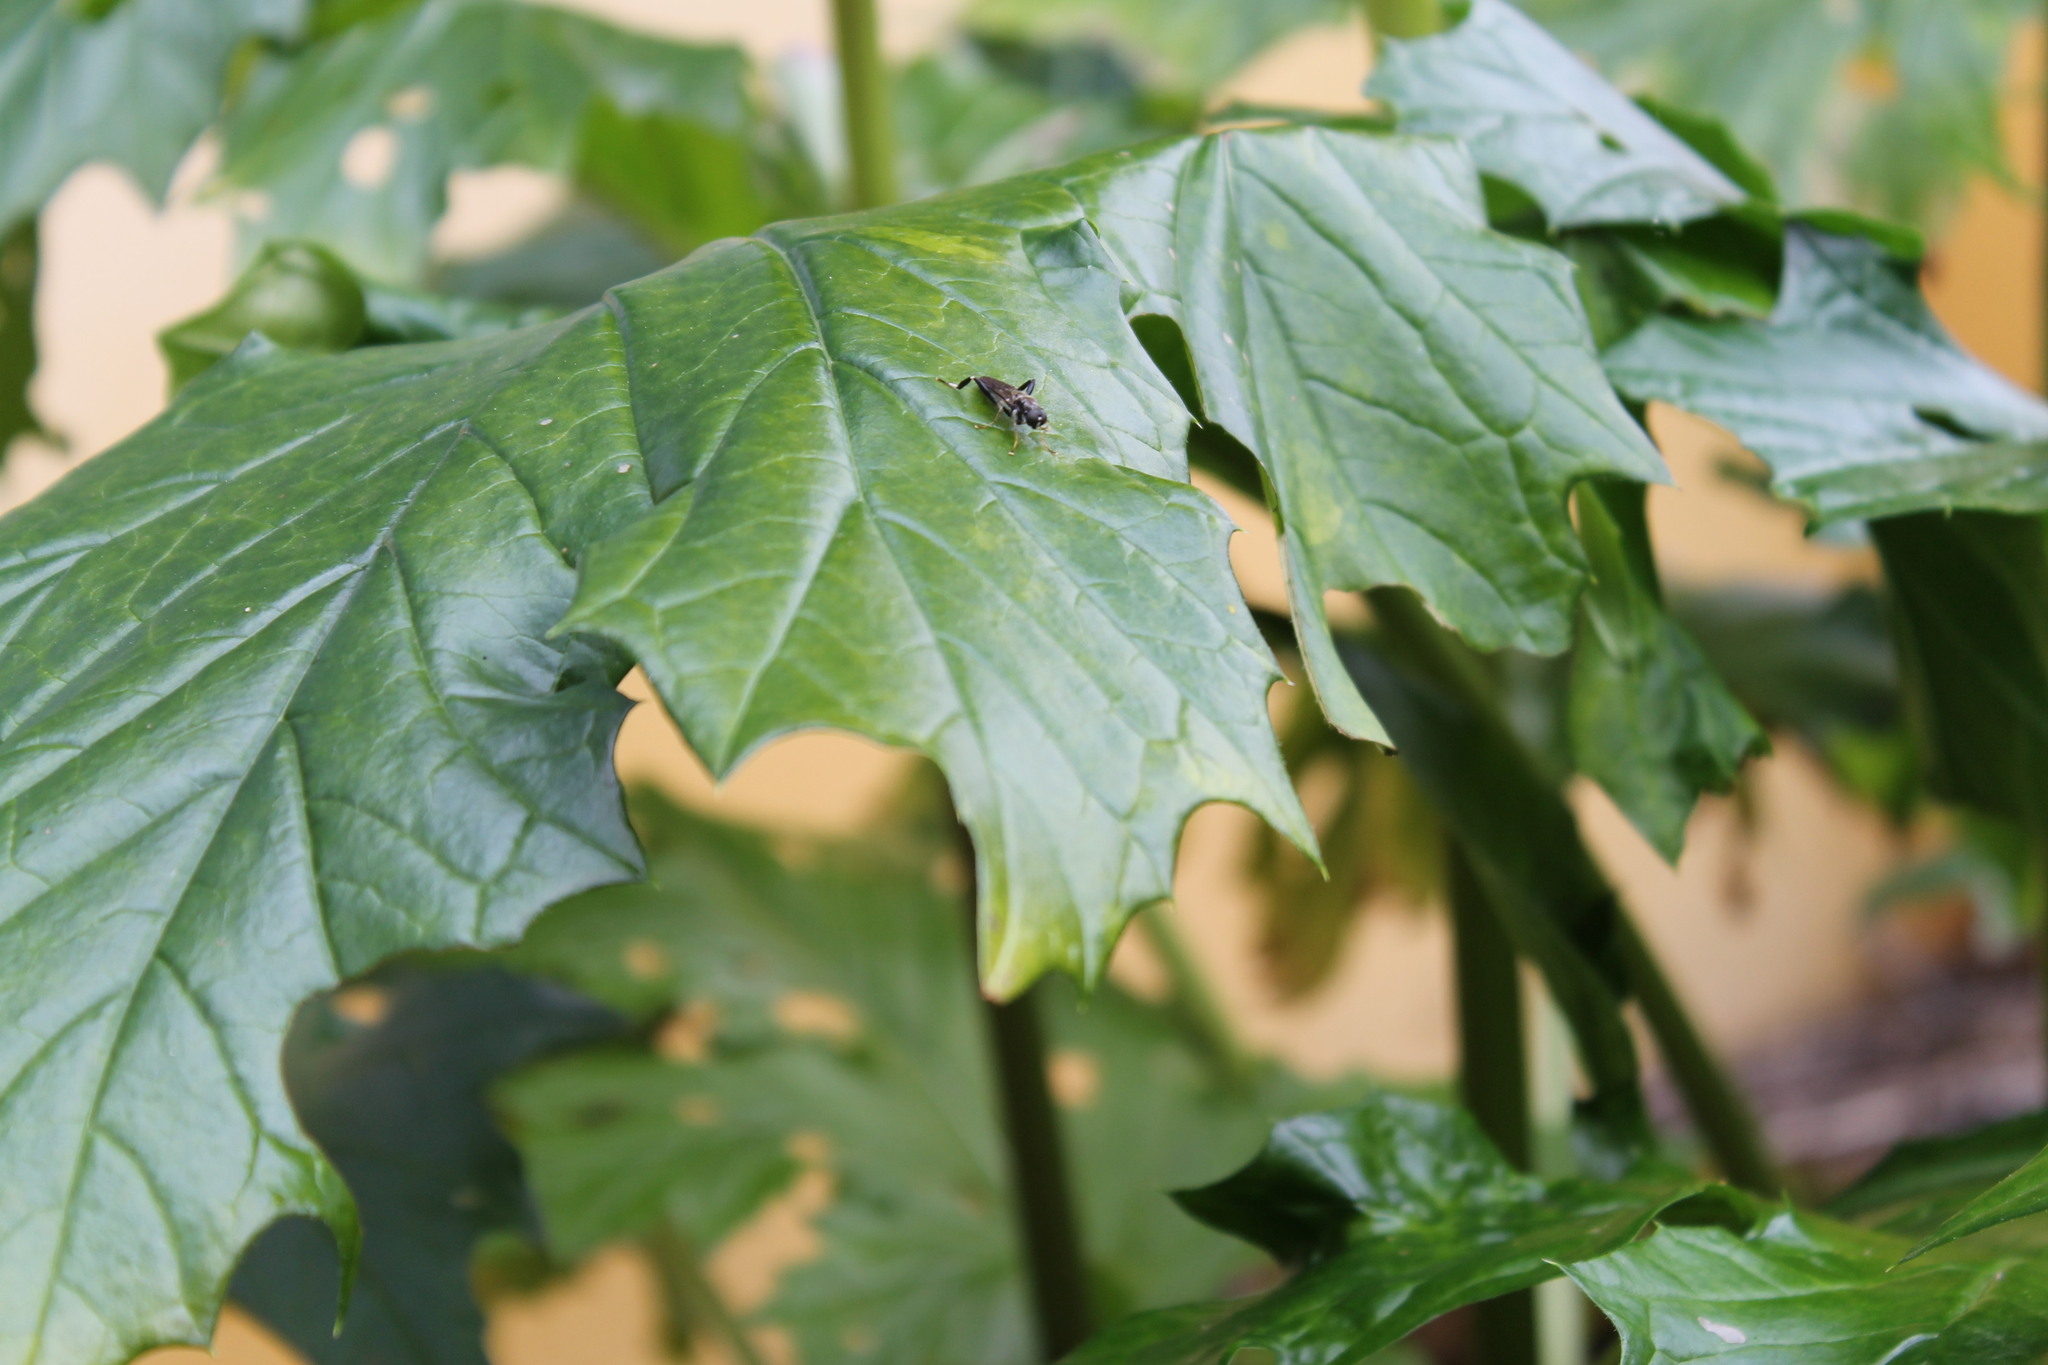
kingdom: Animalia
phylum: Arthropoda
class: Insecta
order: Diptera
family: Stratiomyidae
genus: Exaireta
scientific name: Exaireta spinigera
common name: Blue soldier fly
